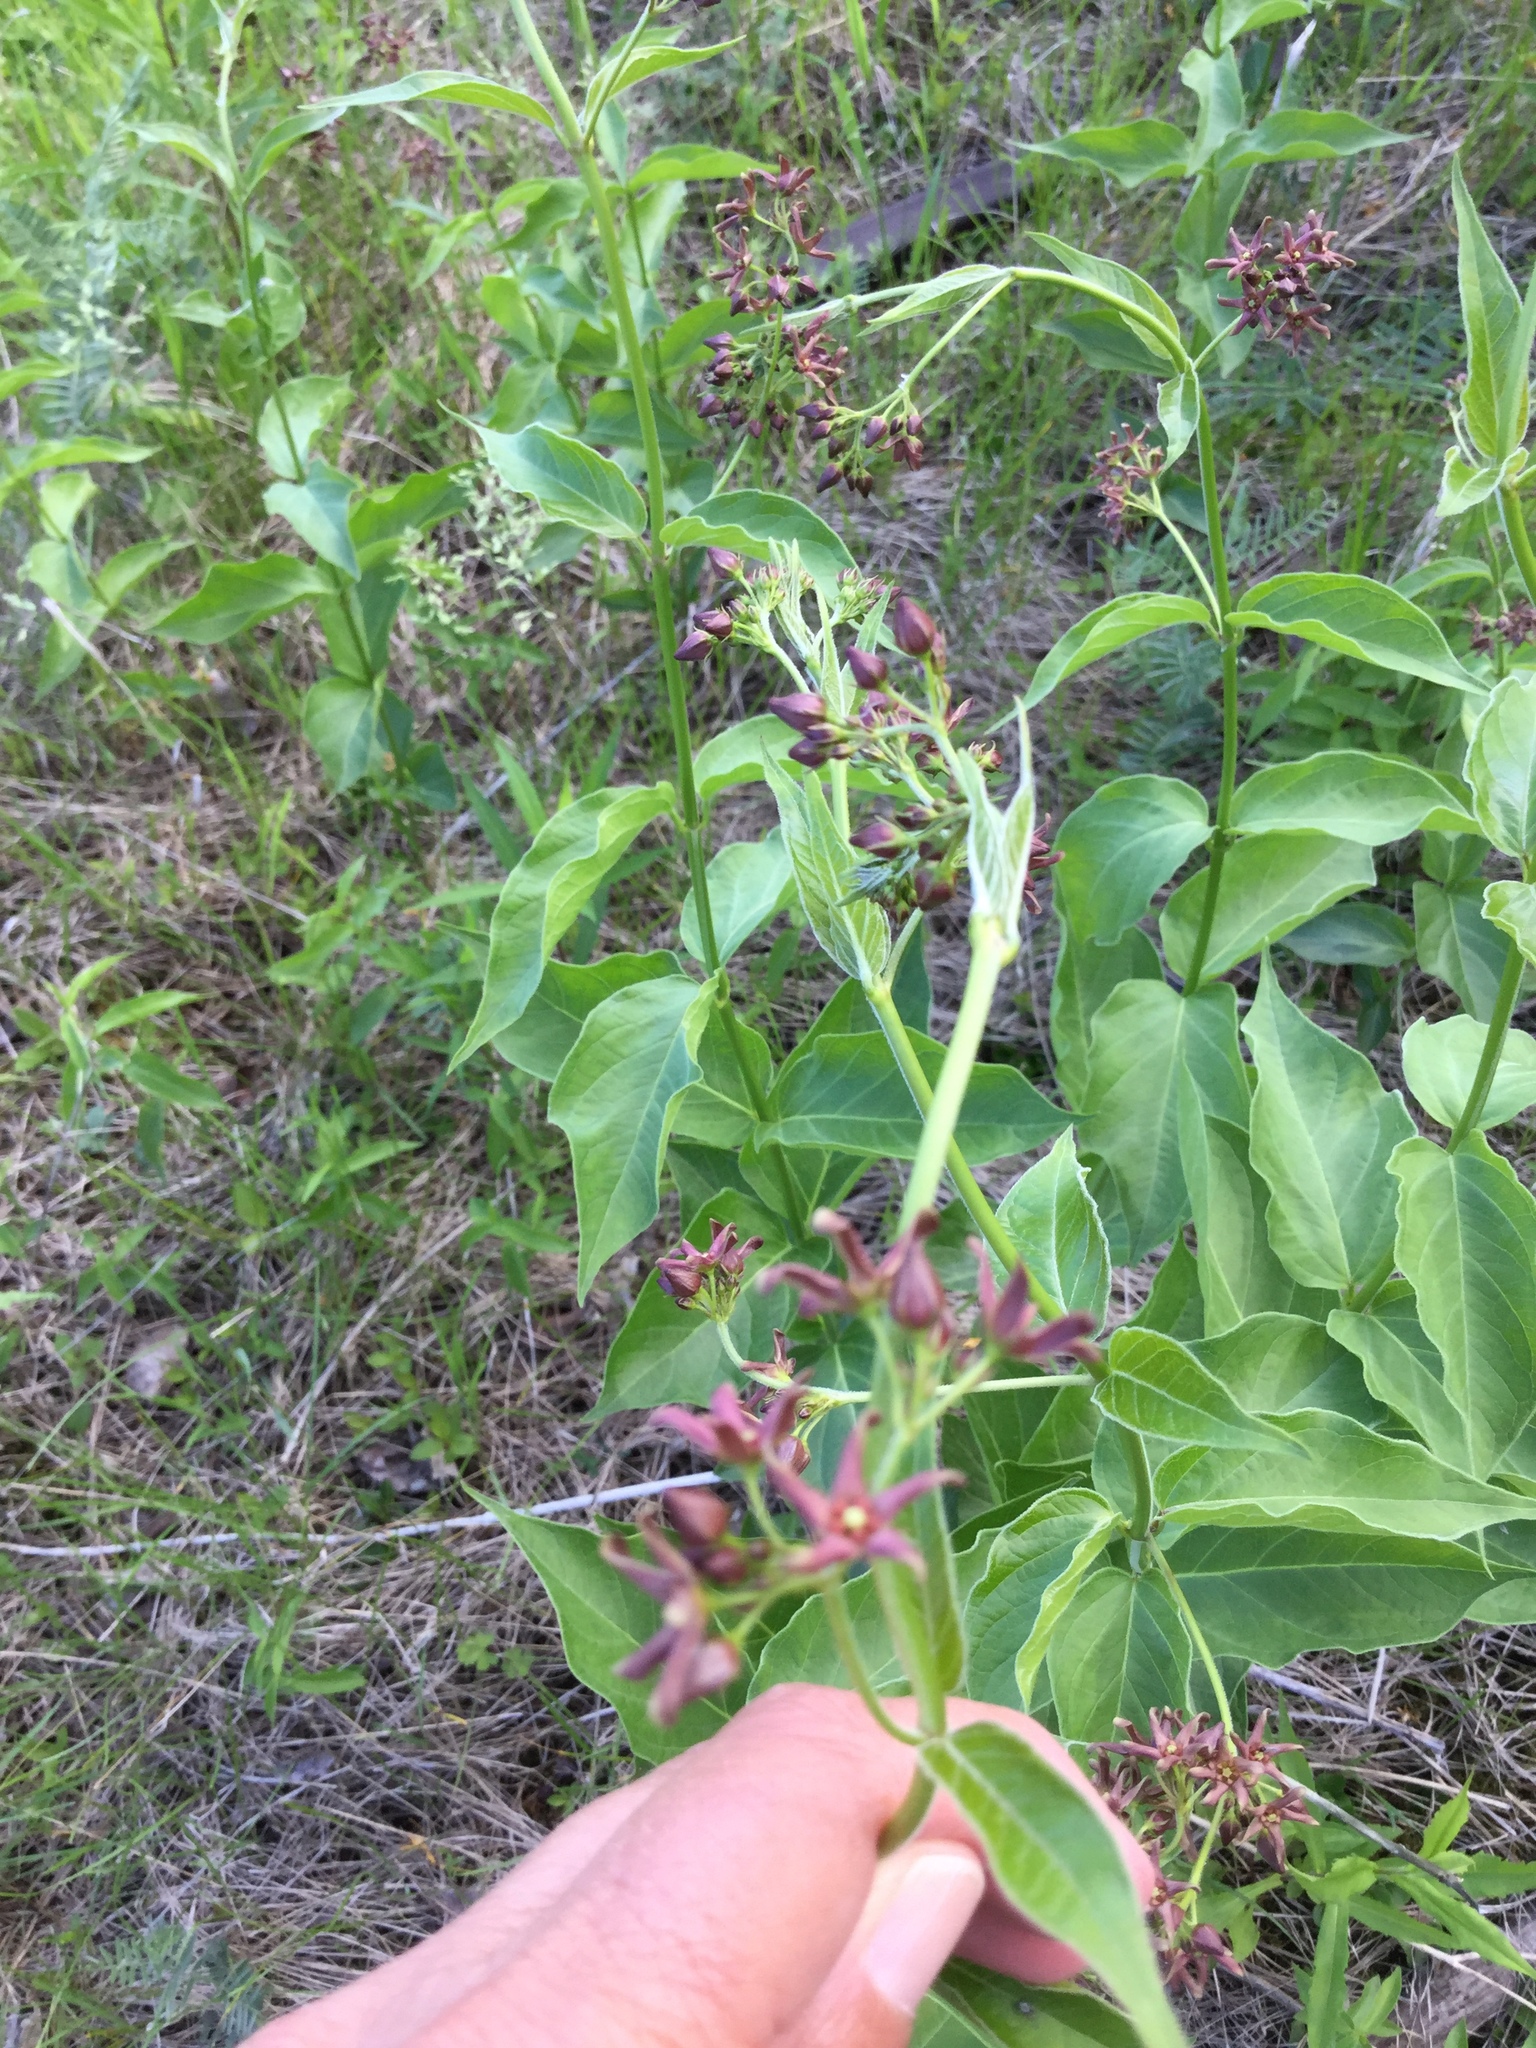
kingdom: Plantae
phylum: Tracheophyta
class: Magnoliopsida
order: Gentianales
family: Apocynaceae
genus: Vincetoxicum
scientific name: Vincetoxicum rossicum
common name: Dog-strangling vine
